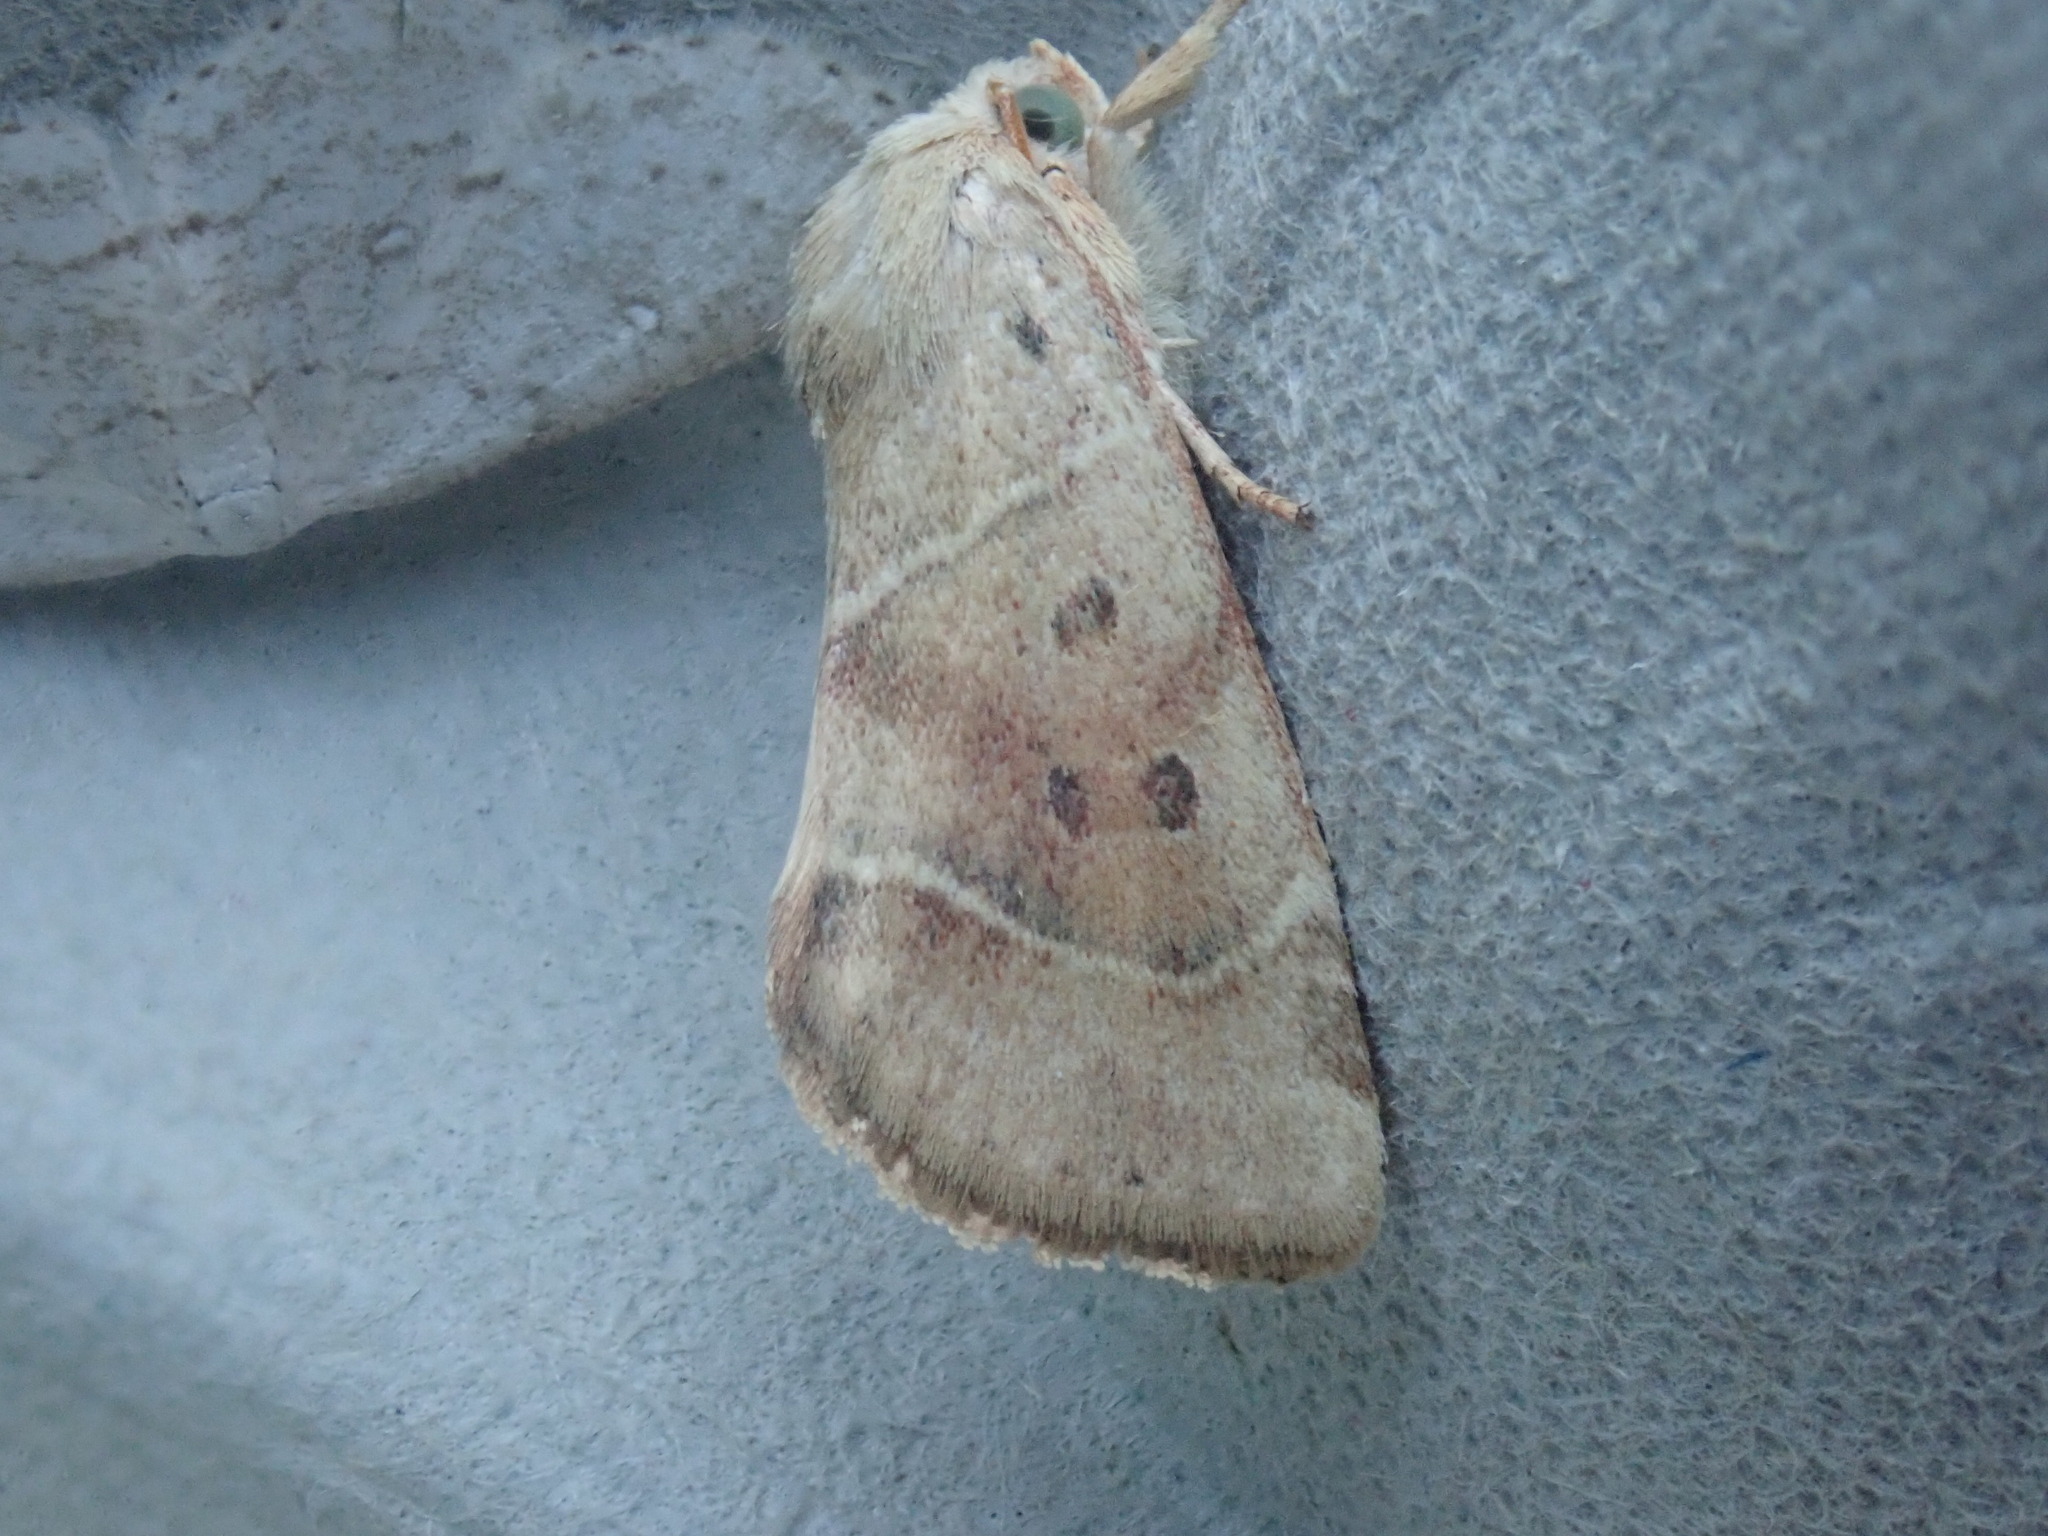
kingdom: Animalia
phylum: Arthropoda
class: Insecta
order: Lepidoptera
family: Noctuidae
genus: Cosmia
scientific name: Cosmia calami
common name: American dun-bar moth
